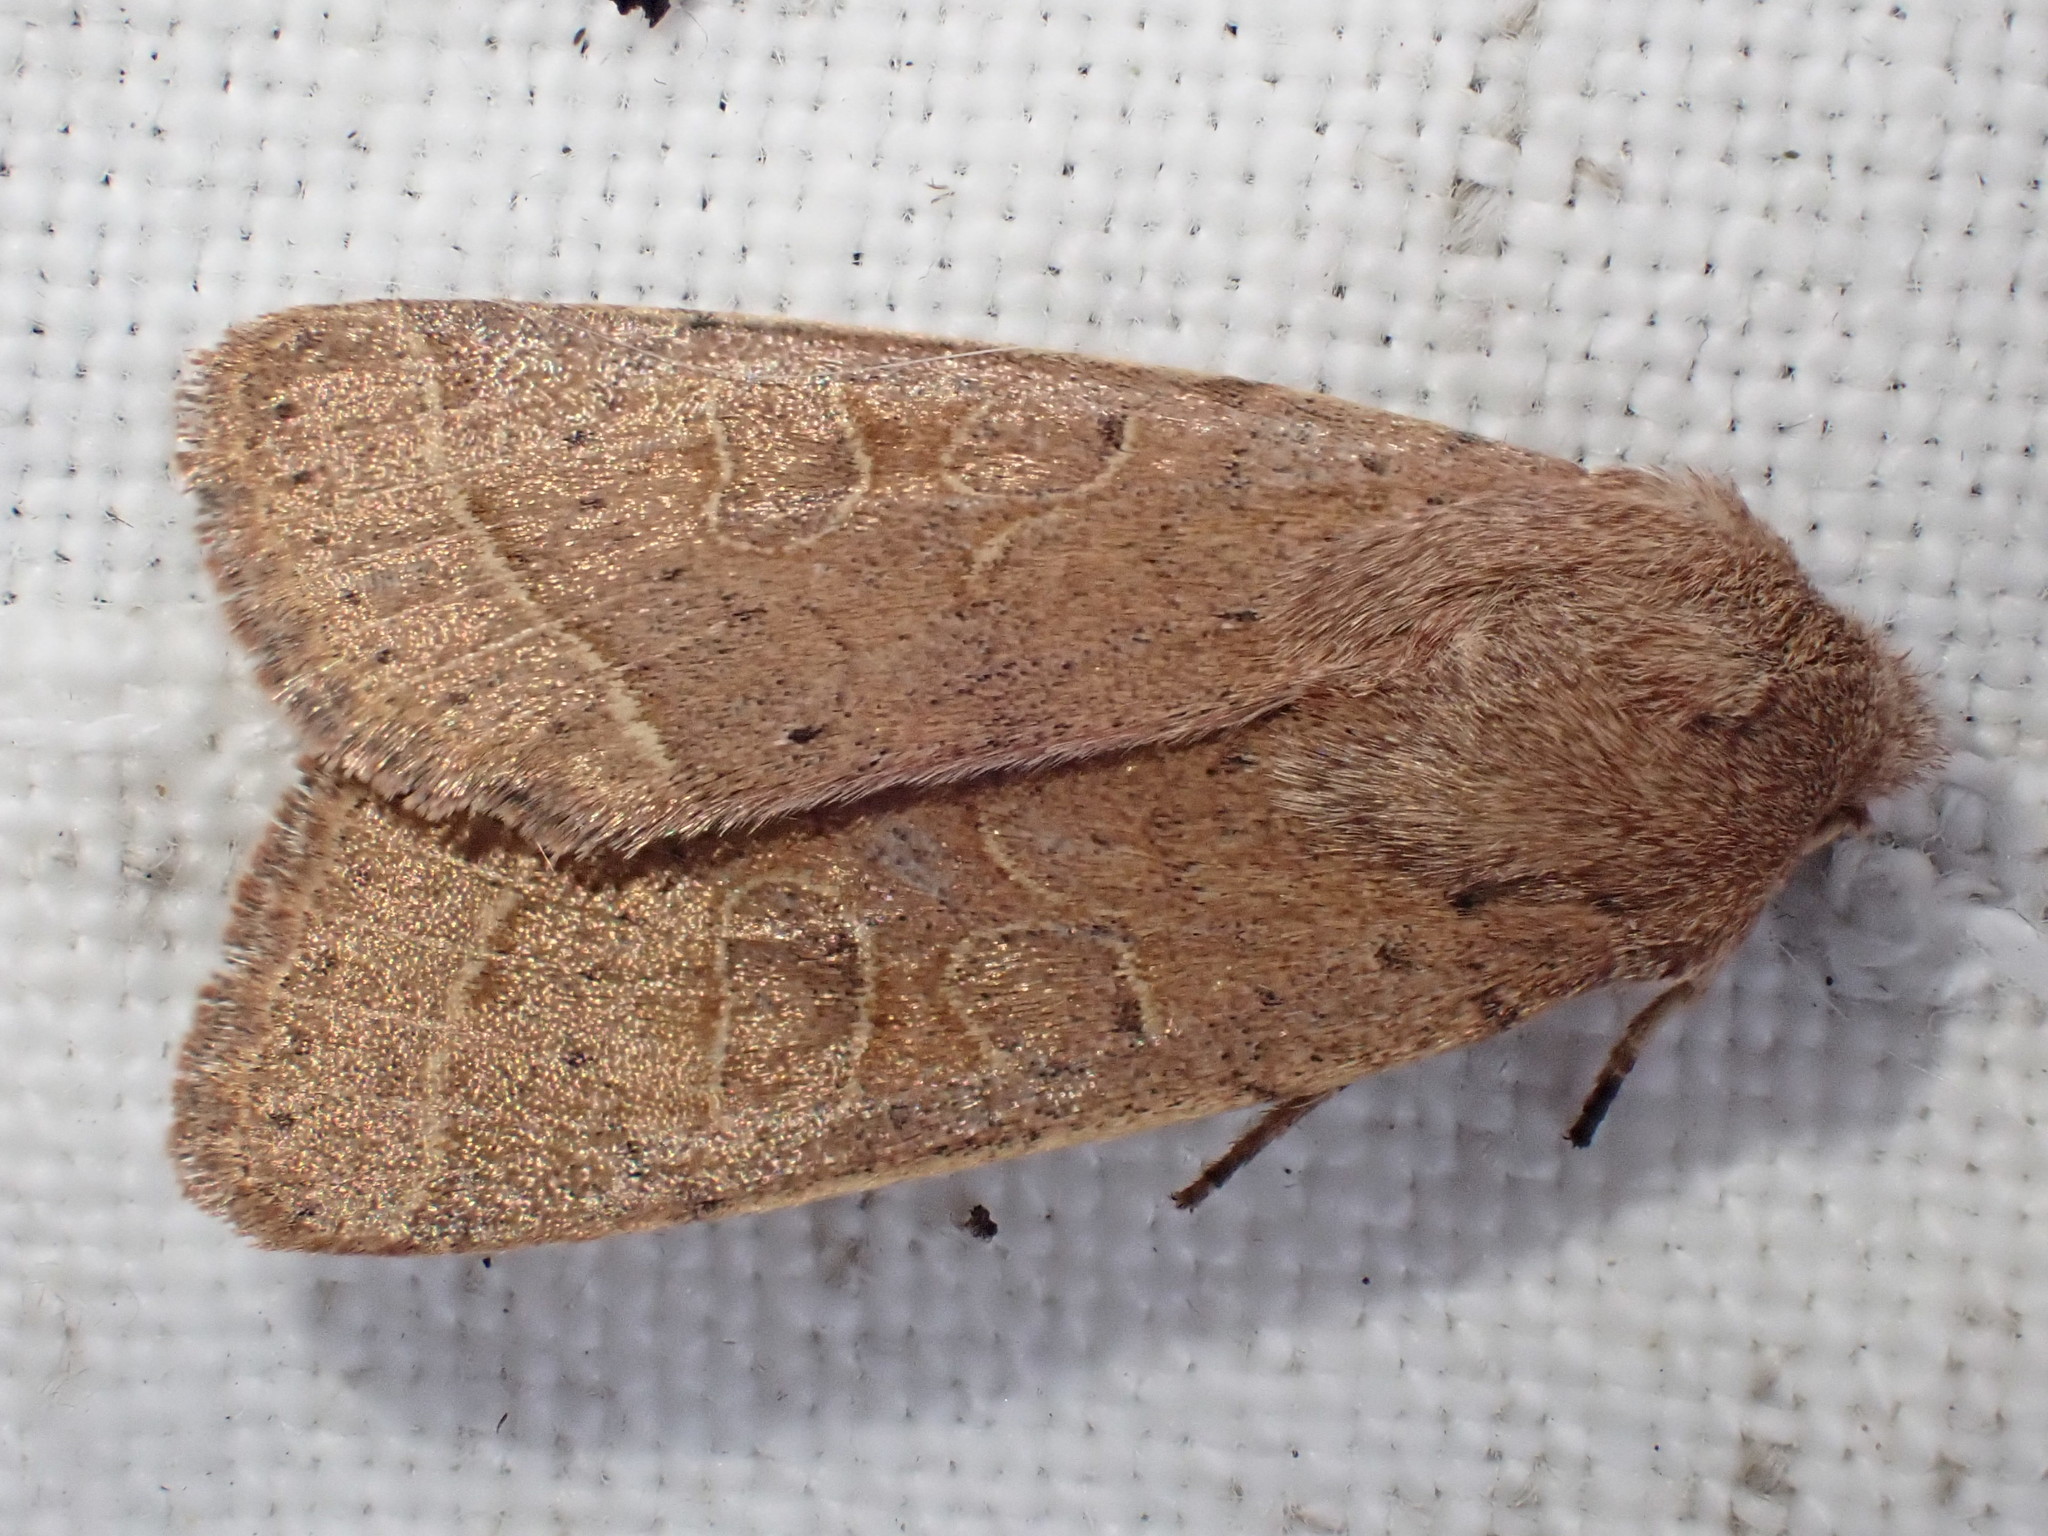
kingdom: Animalia
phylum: Arthropoda
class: Insecta
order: Lepidoptera
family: Noctuidae
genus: Orthosia
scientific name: Orthosia cerasi
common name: Common quaker
